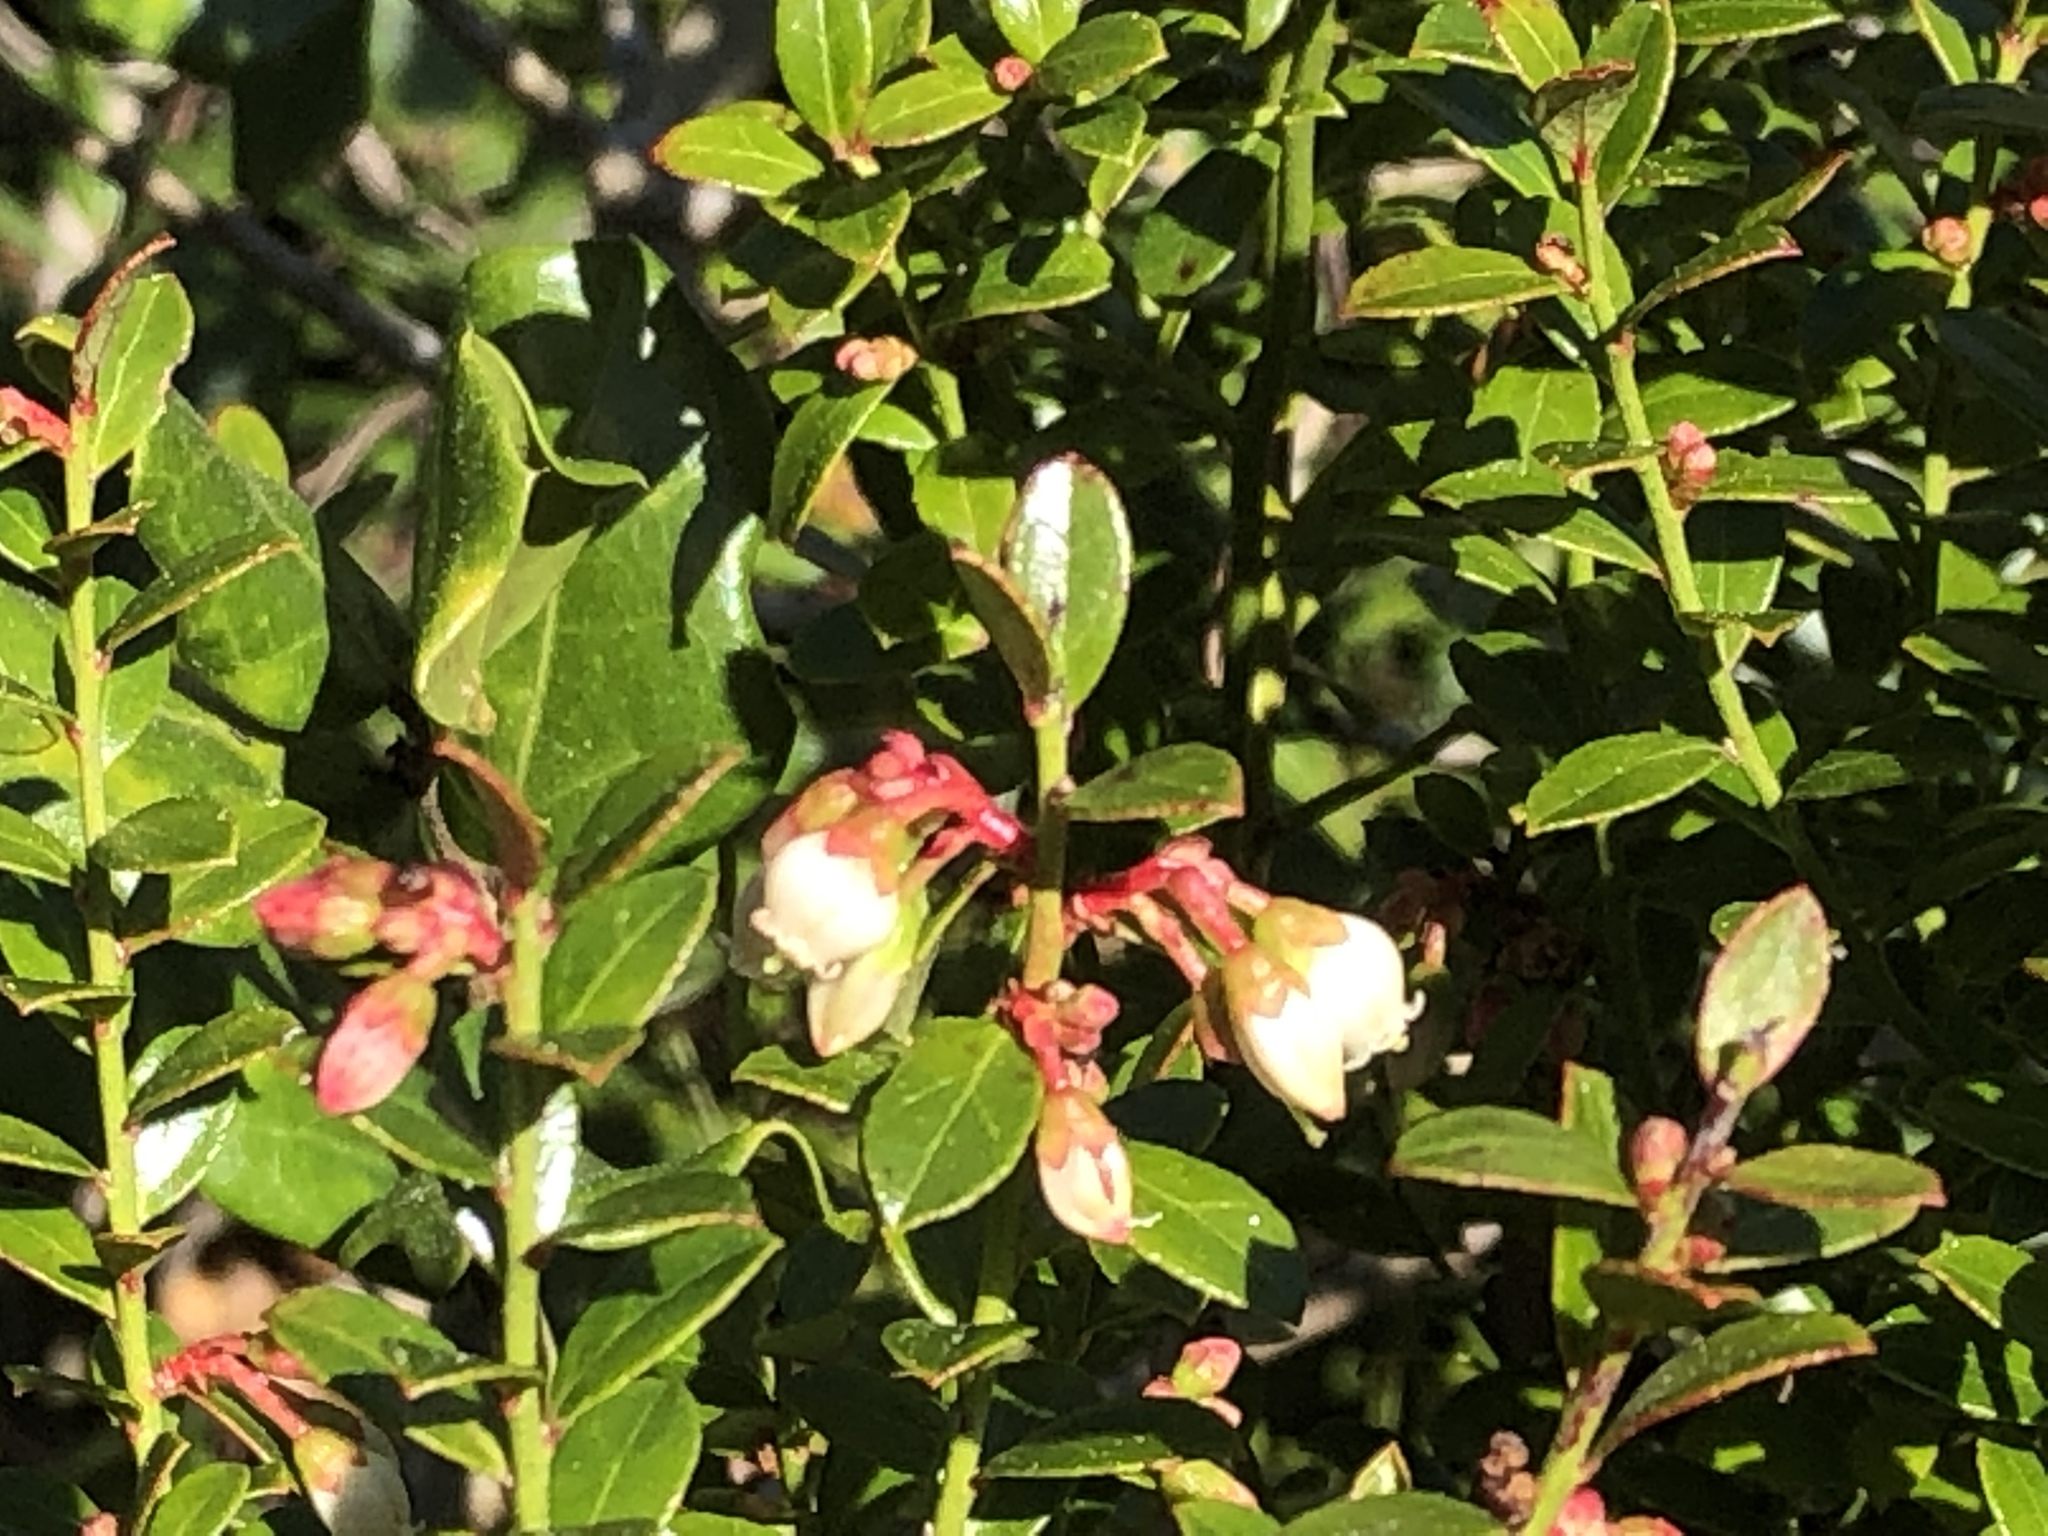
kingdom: Plantae
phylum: Tracheophyta
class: Magnoliopsida
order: Ericales
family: Ericaceae
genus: Vaccinium
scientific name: Vaccinium myrsinites
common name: Evergreen blueberry
